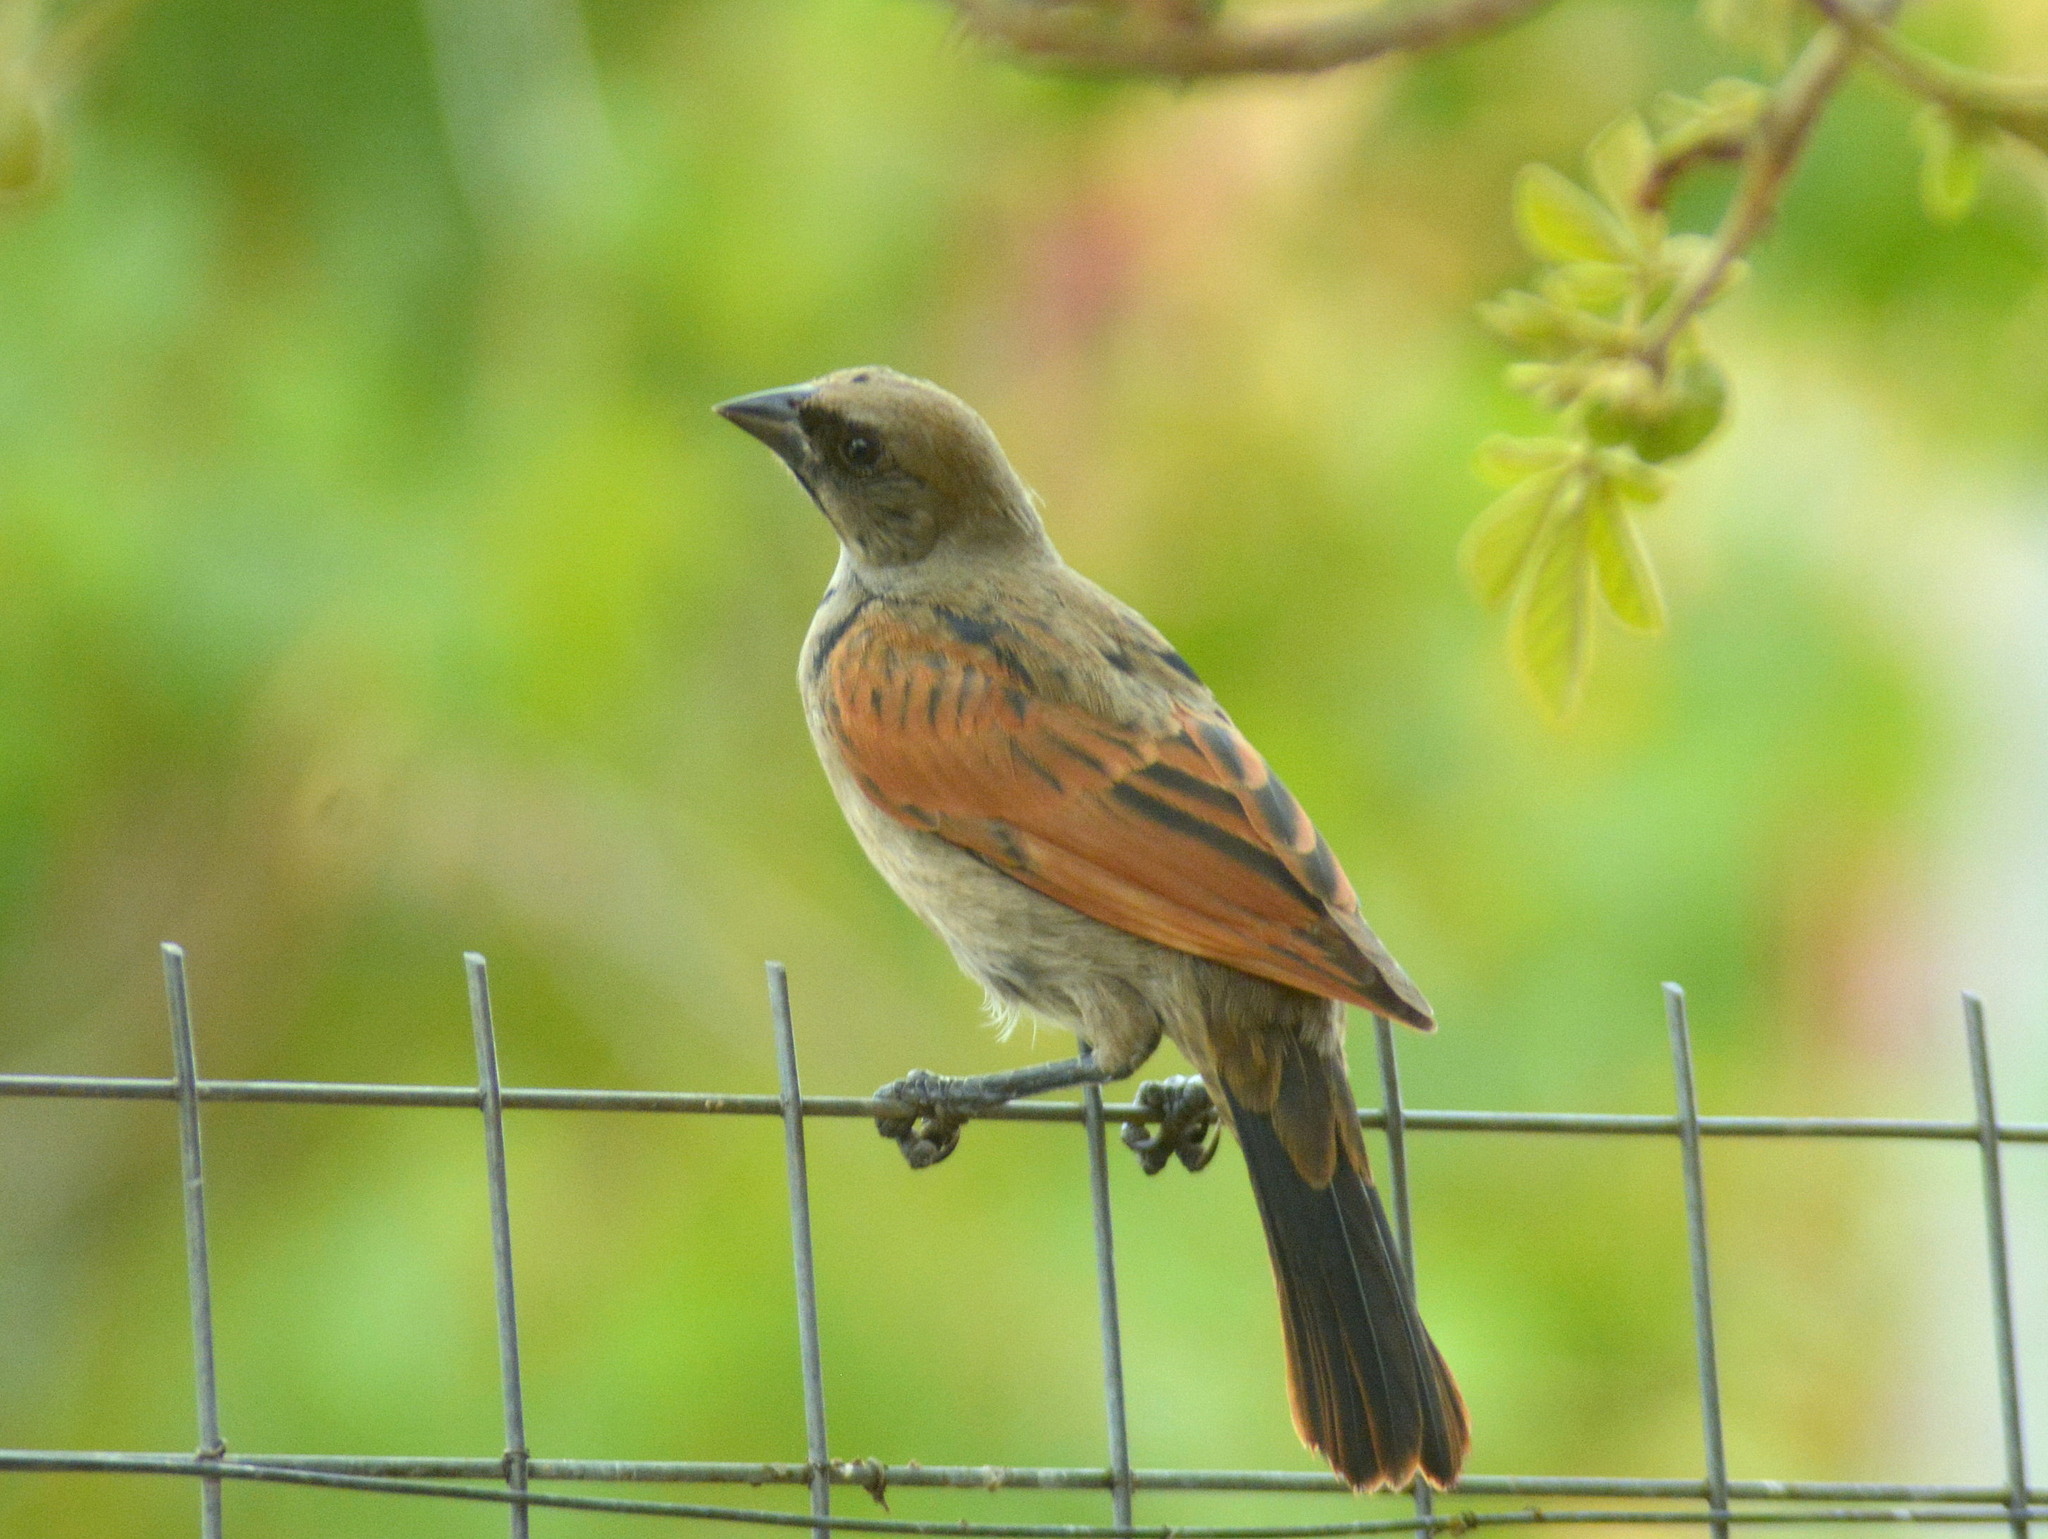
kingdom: Animalia
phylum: Chordata
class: Aves
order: Passeriformes
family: Icteridae
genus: Molothrus
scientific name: Molothrus rufoaxillaris
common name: Screaming cowbird
